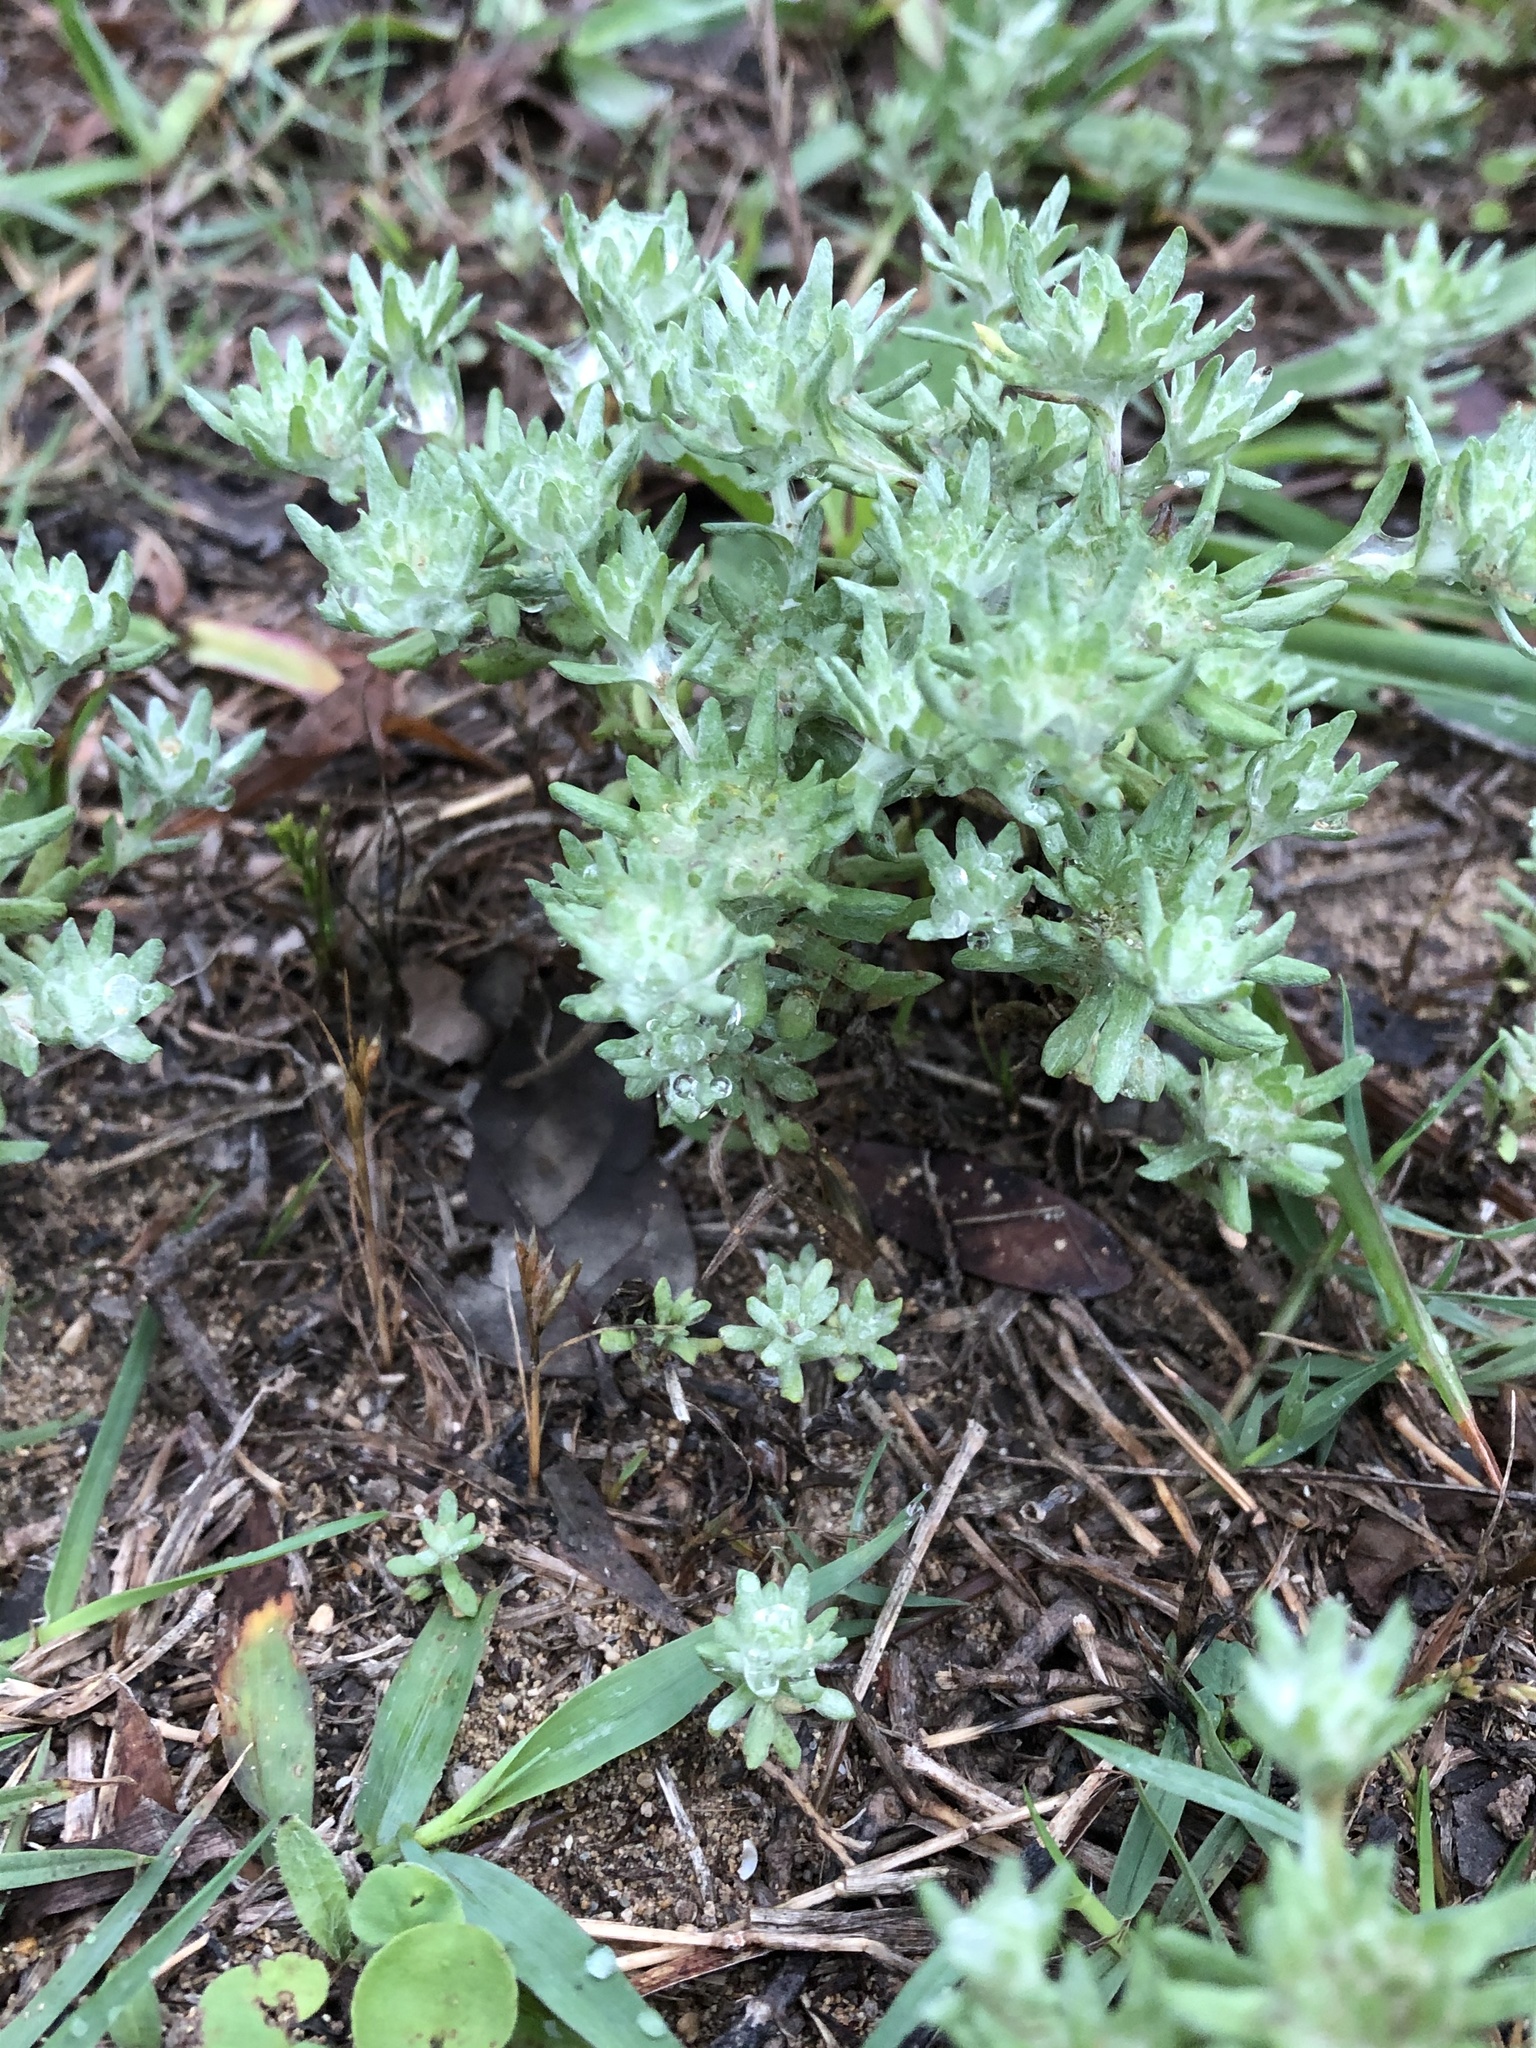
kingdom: Plantae
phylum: Tracheophyta
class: Magnoliopsida
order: Asterales
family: Asteraceae
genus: Diaperia
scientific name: Diaperia prolifera
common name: Big-head rabbit-tobacco
